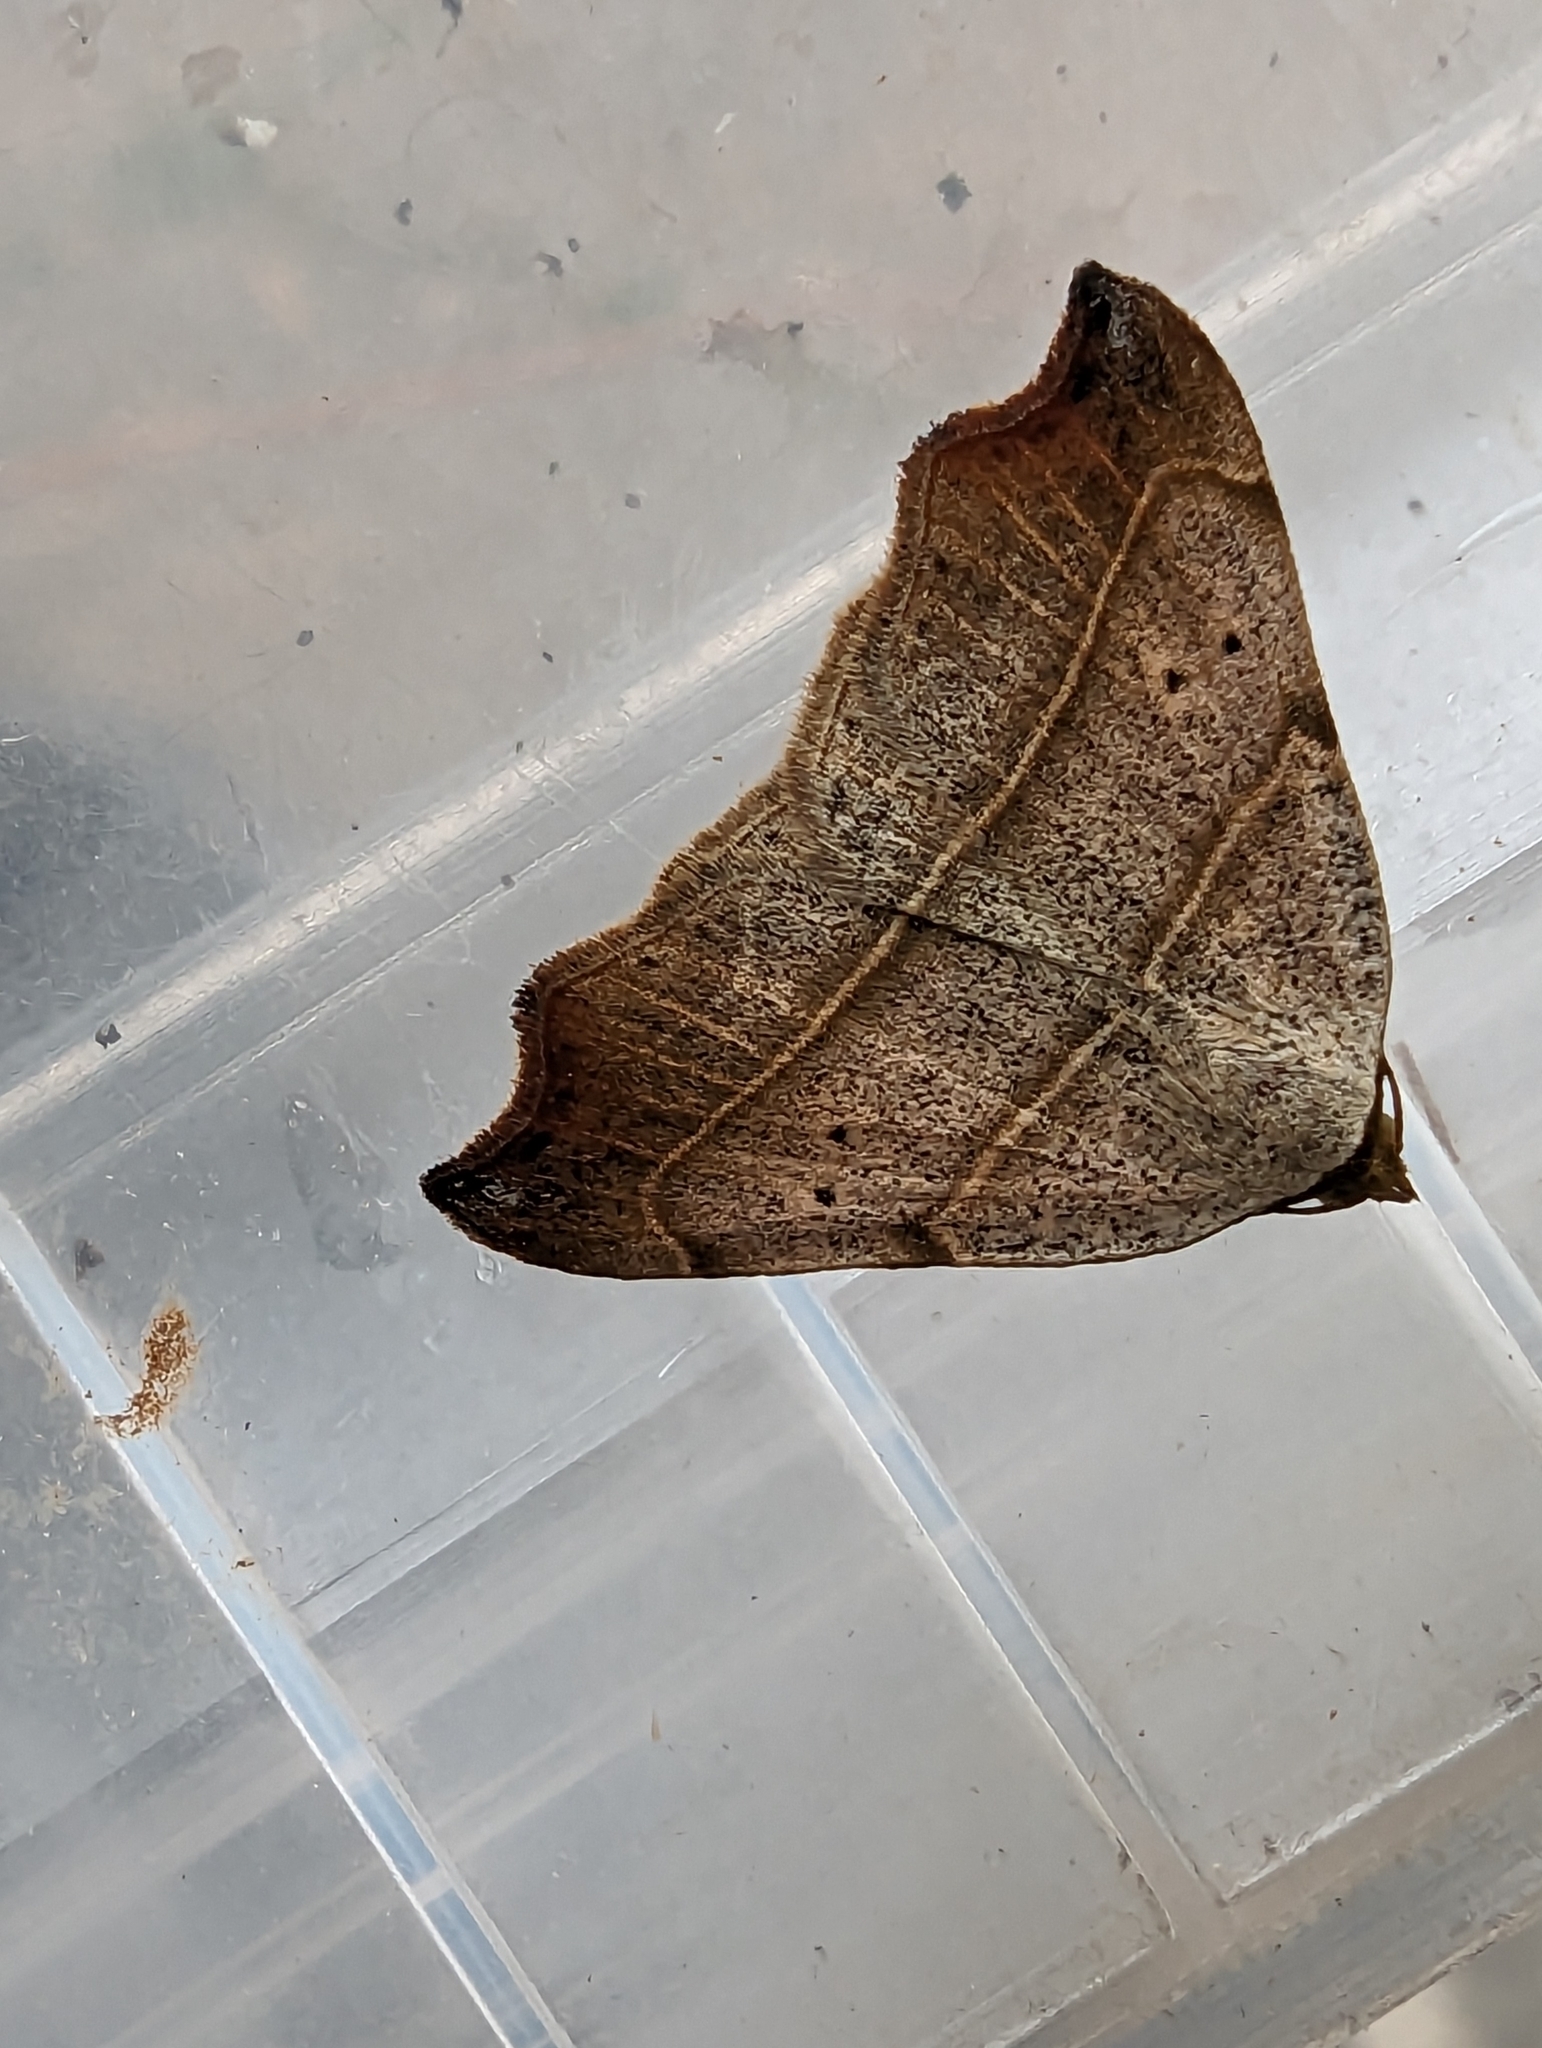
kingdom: Animalia
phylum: Arthropoda
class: Insecta
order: Lepidoptera
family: Erebidae
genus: Laspeyria
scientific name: Laspeyria flexula
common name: Beautiful hook-tip
